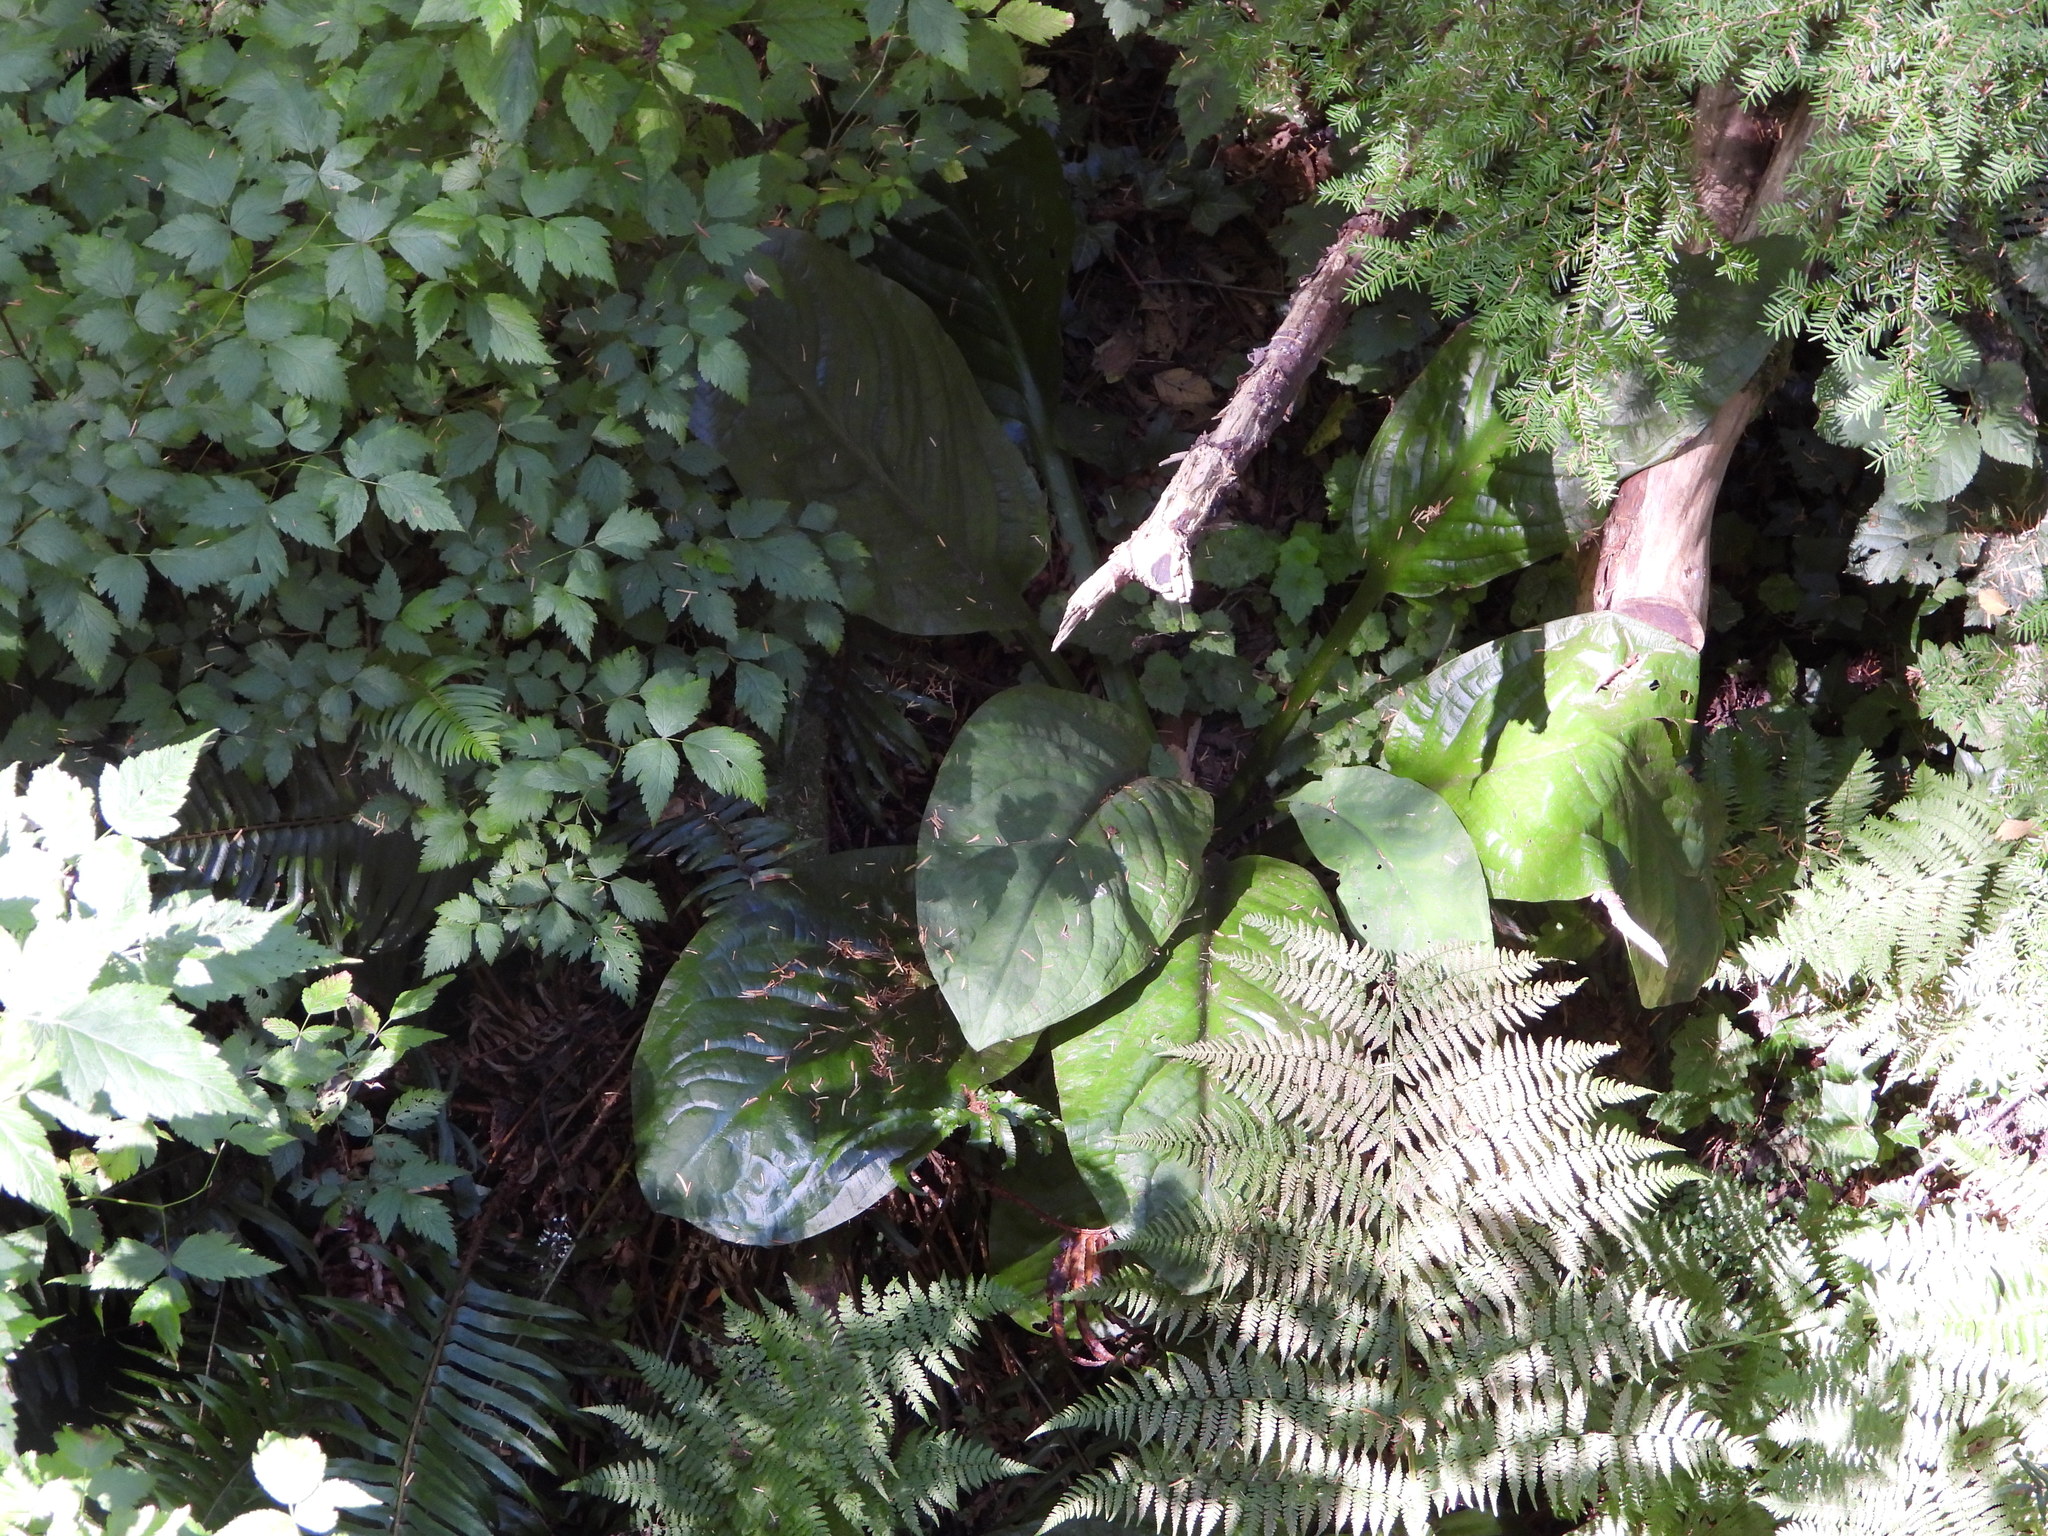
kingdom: Plantae
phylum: Tracheophyta
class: Liliopsida
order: Alismatales
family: Araceae
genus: Lysichiton
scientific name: Lysichiton americanus
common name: American skunk cabbage
